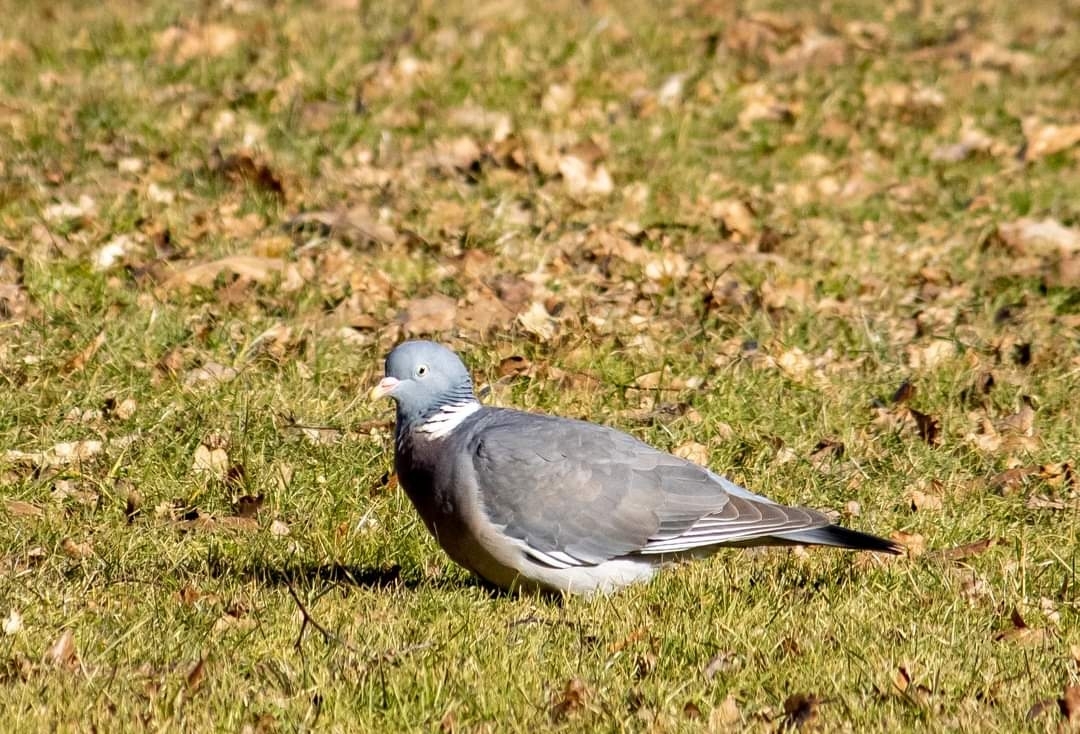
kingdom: Animalia
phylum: Chordata
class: Aves
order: Columbiformes
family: Columbidae
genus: Columba
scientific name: Columba palumbus
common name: Common wood pigeon
